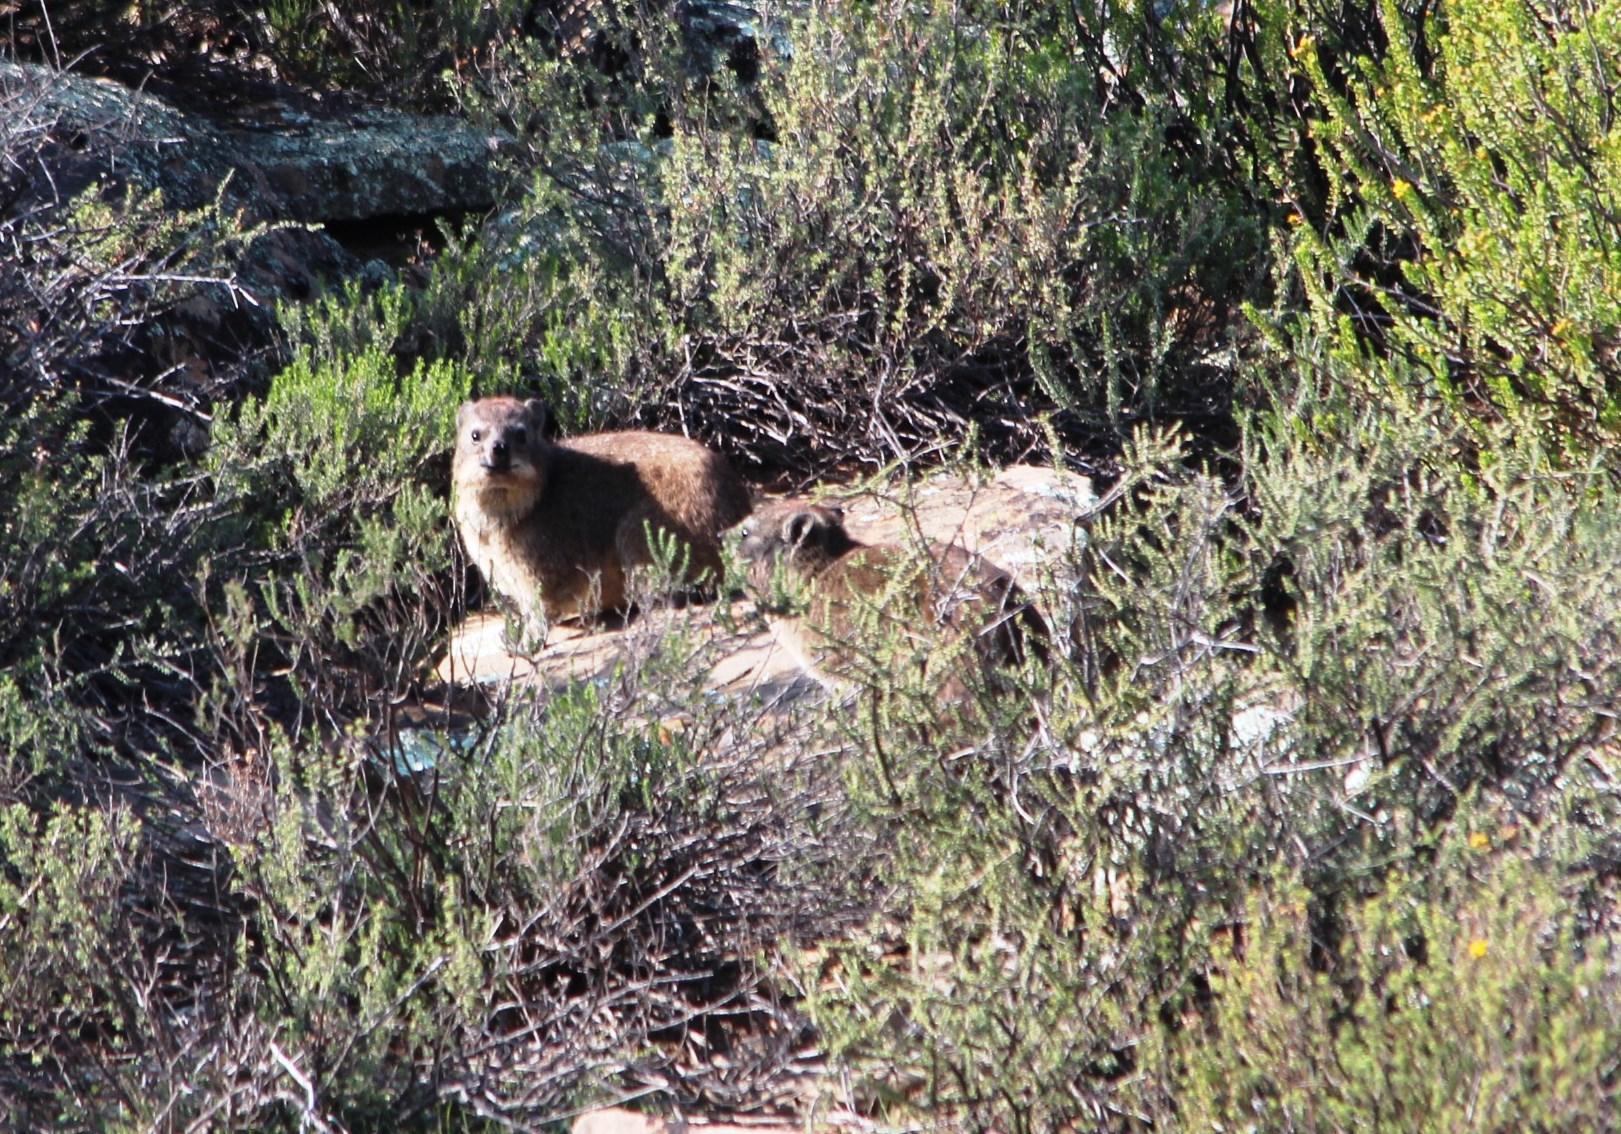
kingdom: Animalia
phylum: Chordata
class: Mammalia
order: Hyracoidea
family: Procaviidae
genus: Procavia
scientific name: Procavia capensis
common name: Rock hyrax
